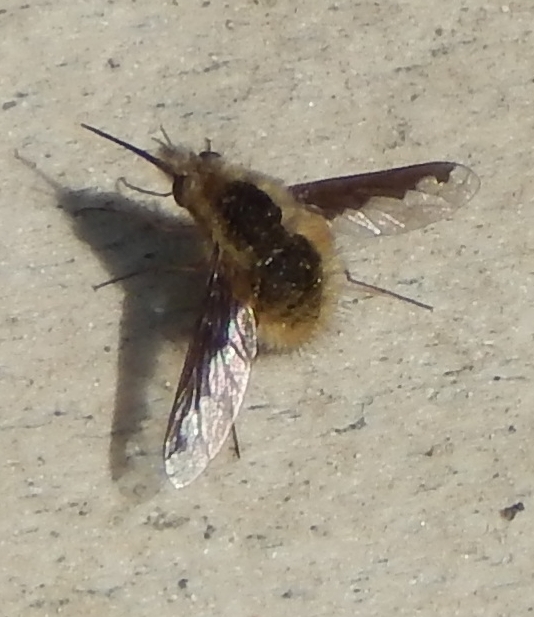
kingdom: Animalia
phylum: Arthropoda
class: Insecta
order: Diptera
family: Bombyliidae
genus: Bombylius
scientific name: Bombylius major
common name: Bee fly
